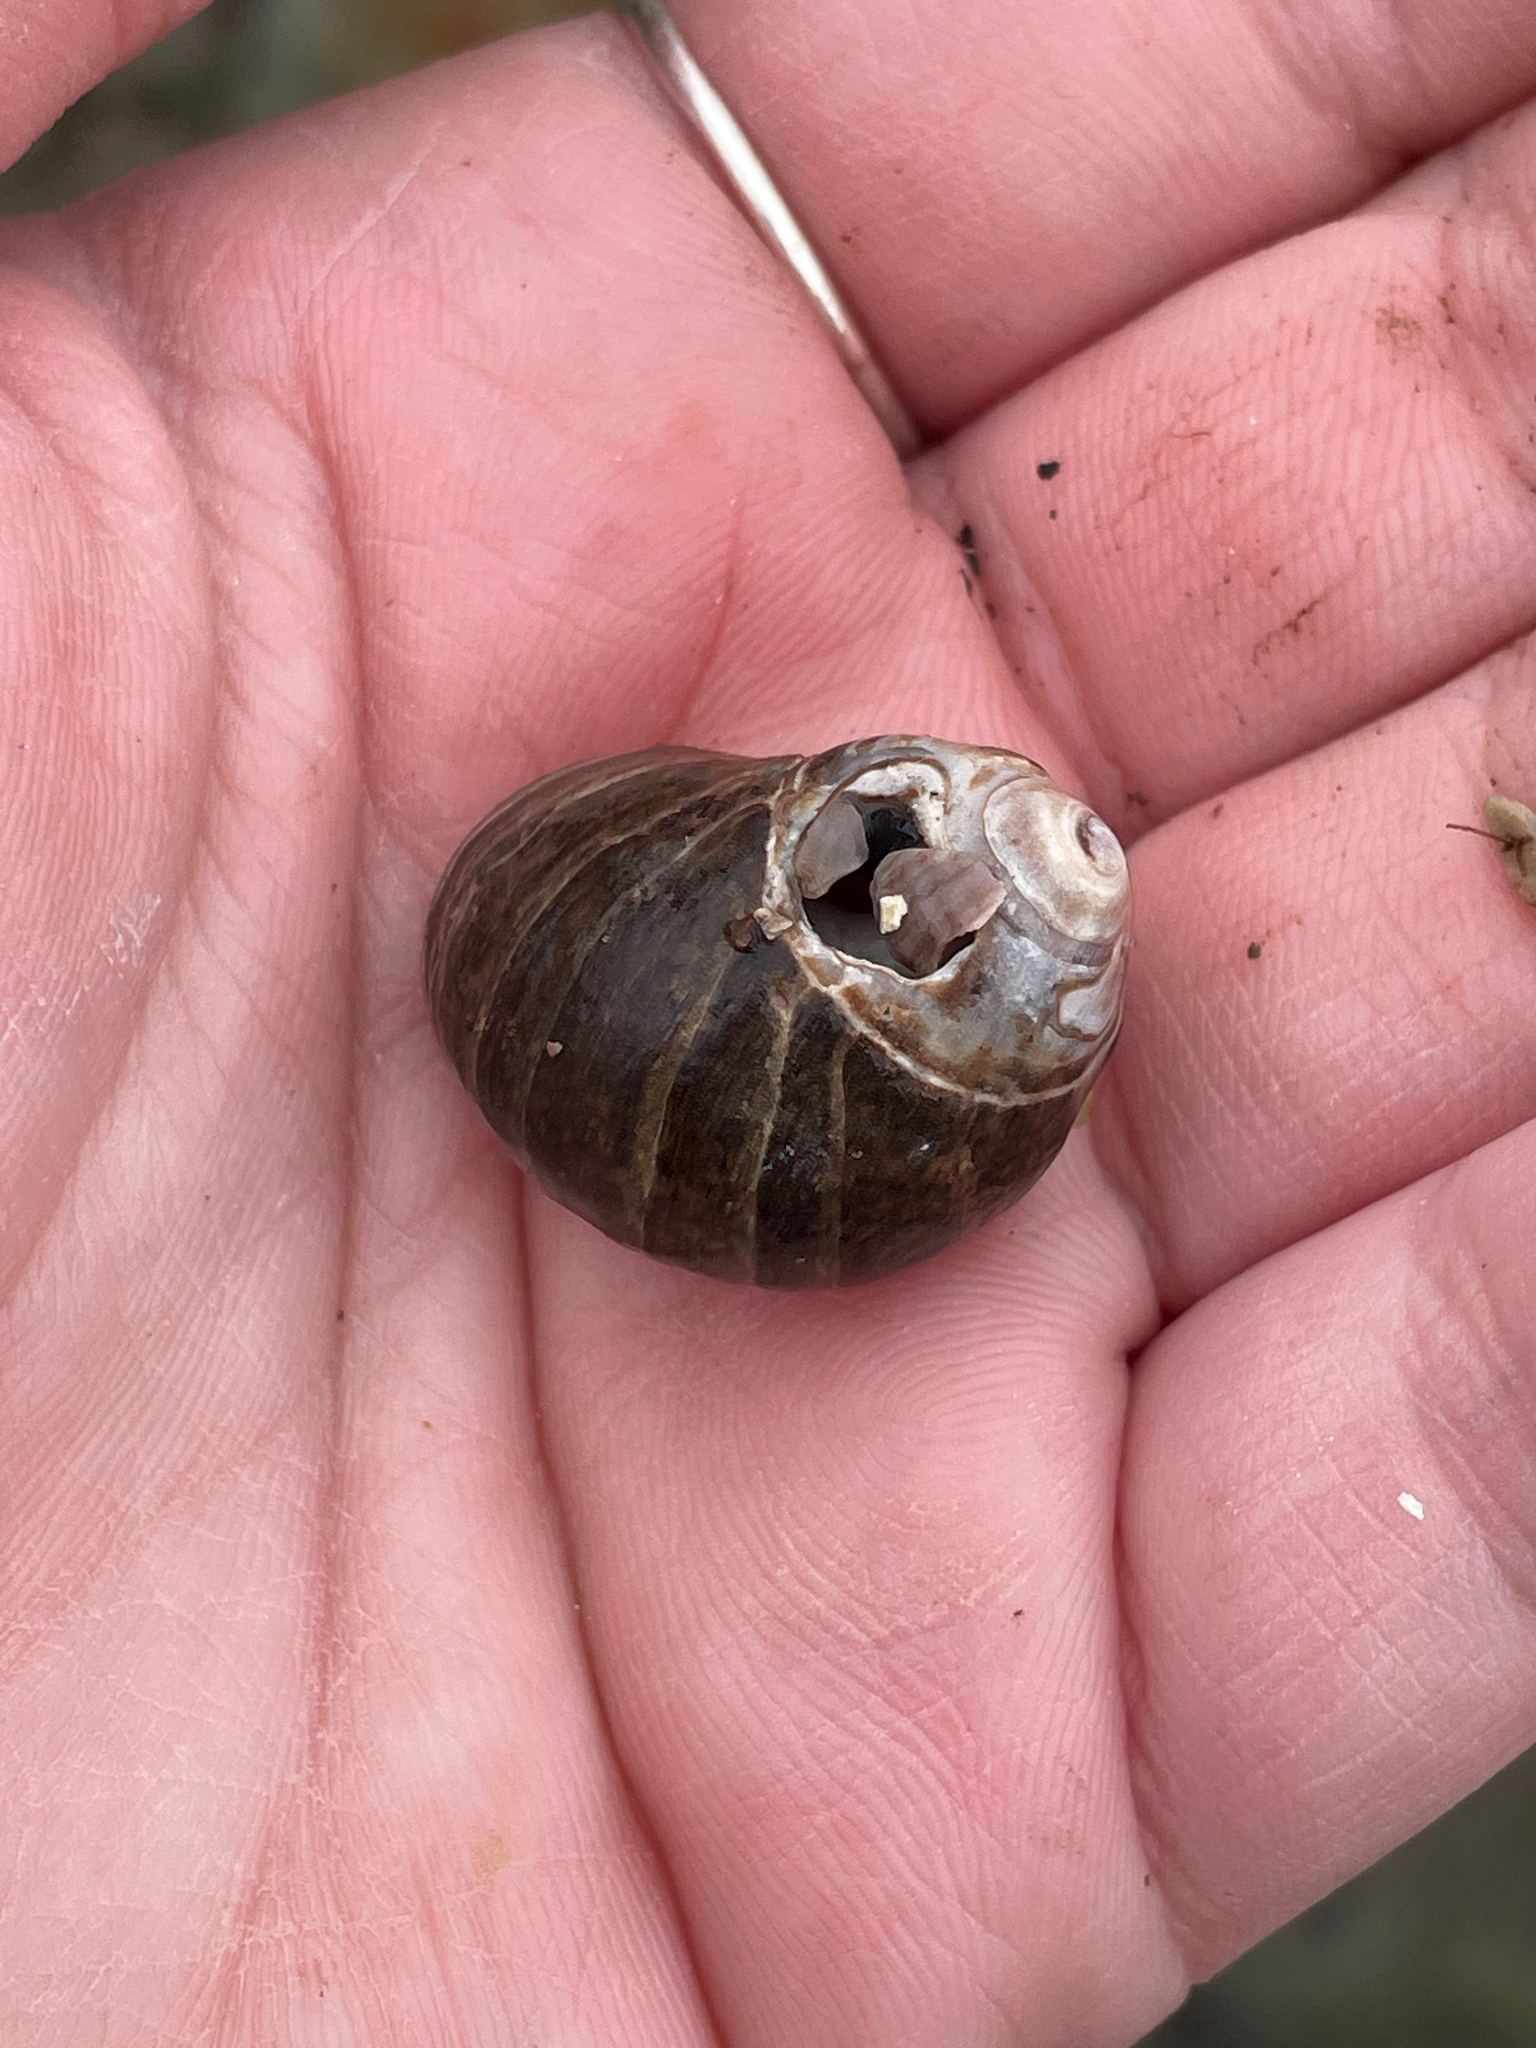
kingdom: Animalia
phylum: Mollusca
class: Gastropoda
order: Littorinimorpha
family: Littorinidae
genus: Littorina
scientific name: Littorina littorea
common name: Common periwinkle
